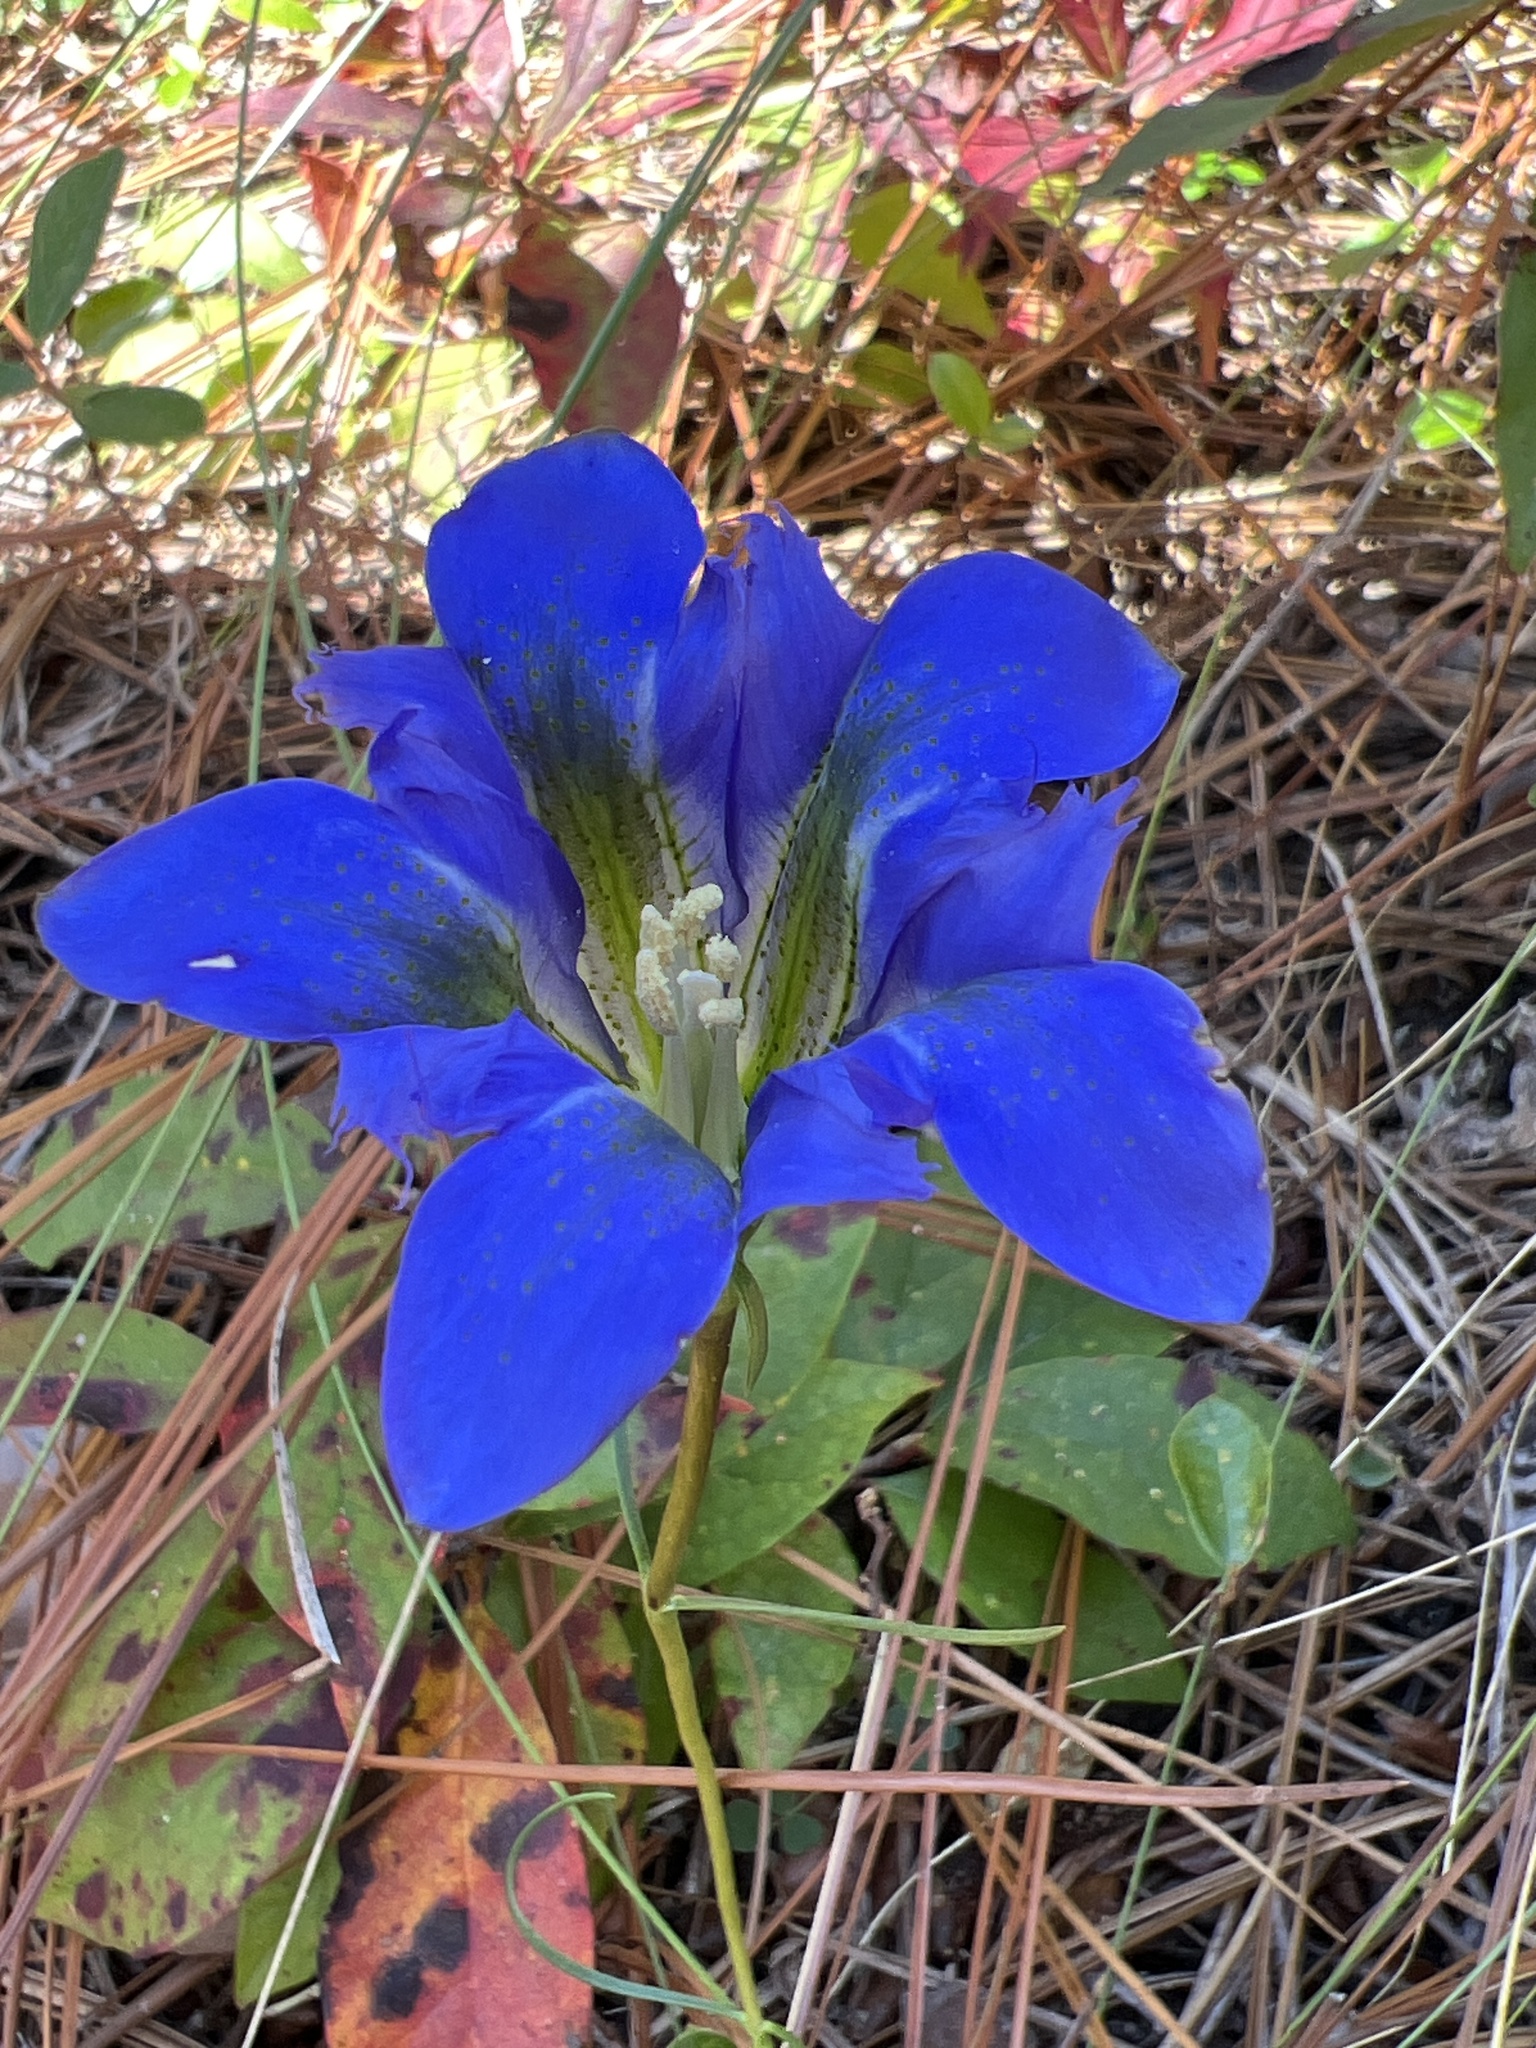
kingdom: Plantae
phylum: Tracheophyta
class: Magnoliopsida
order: Gentianales
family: Gentianaceae
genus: Gentiana
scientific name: Gentiana autumnalis
